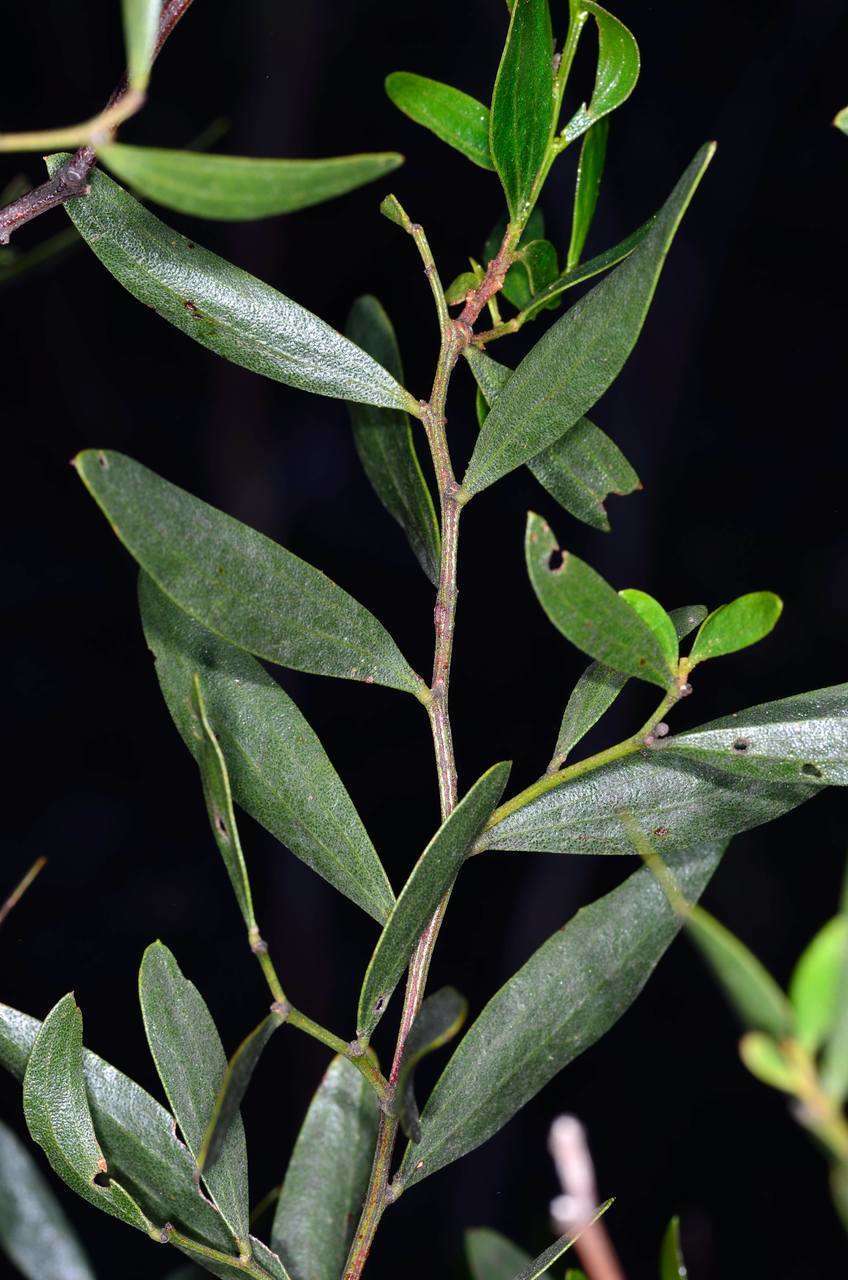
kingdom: Plantae
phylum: Tracheophyta
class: Magnoliopsida
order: Fabales
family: Fabaceae
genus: Acacia
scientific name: Acacia verniciflua
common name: Varnish wattle
